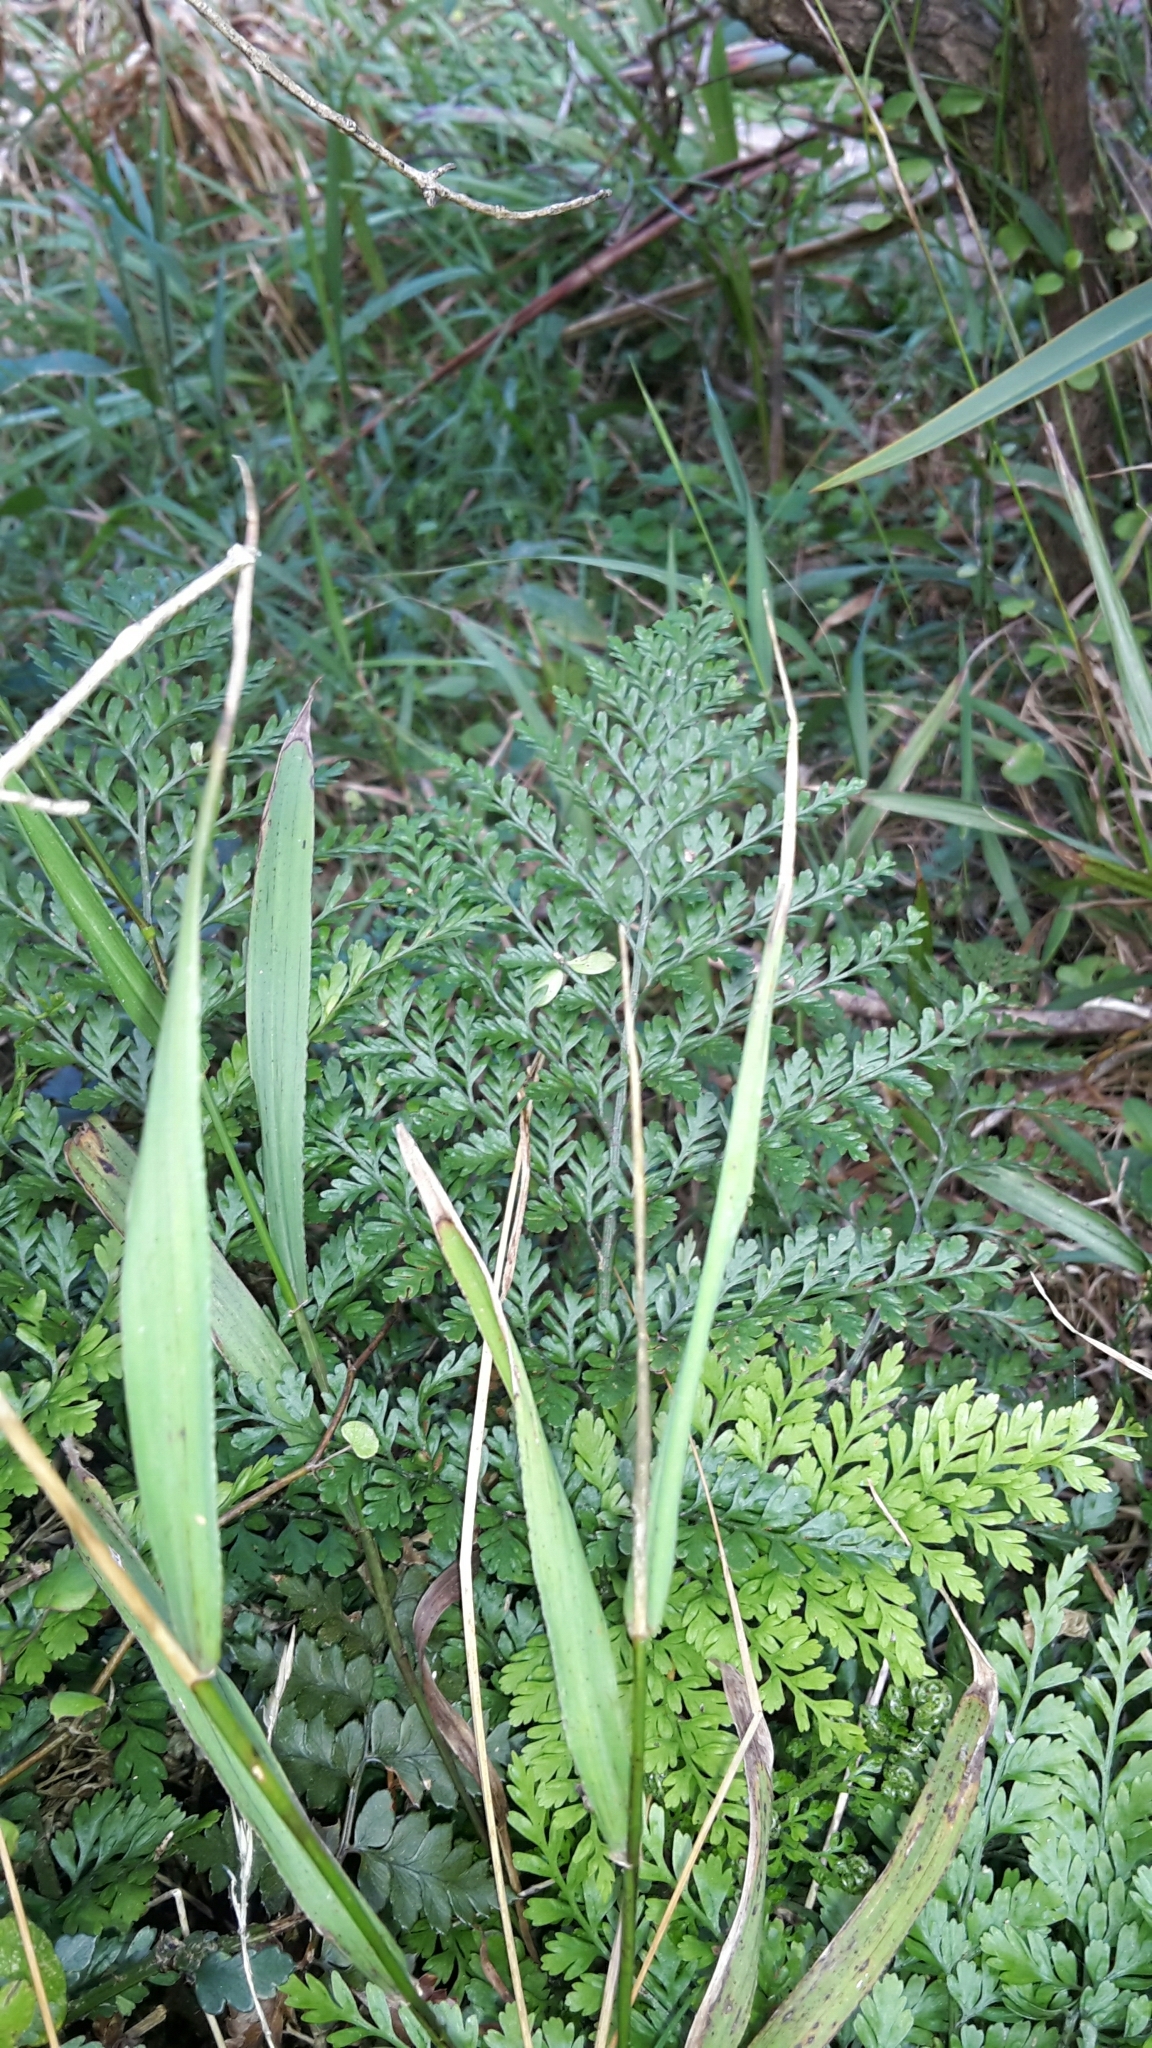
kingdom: Plantae
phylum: Tracheophyta
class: Polypodiopsida
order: Polypodiales
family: Aspleniaceae
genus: Asplenium
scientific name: Asplenium hookerianum
